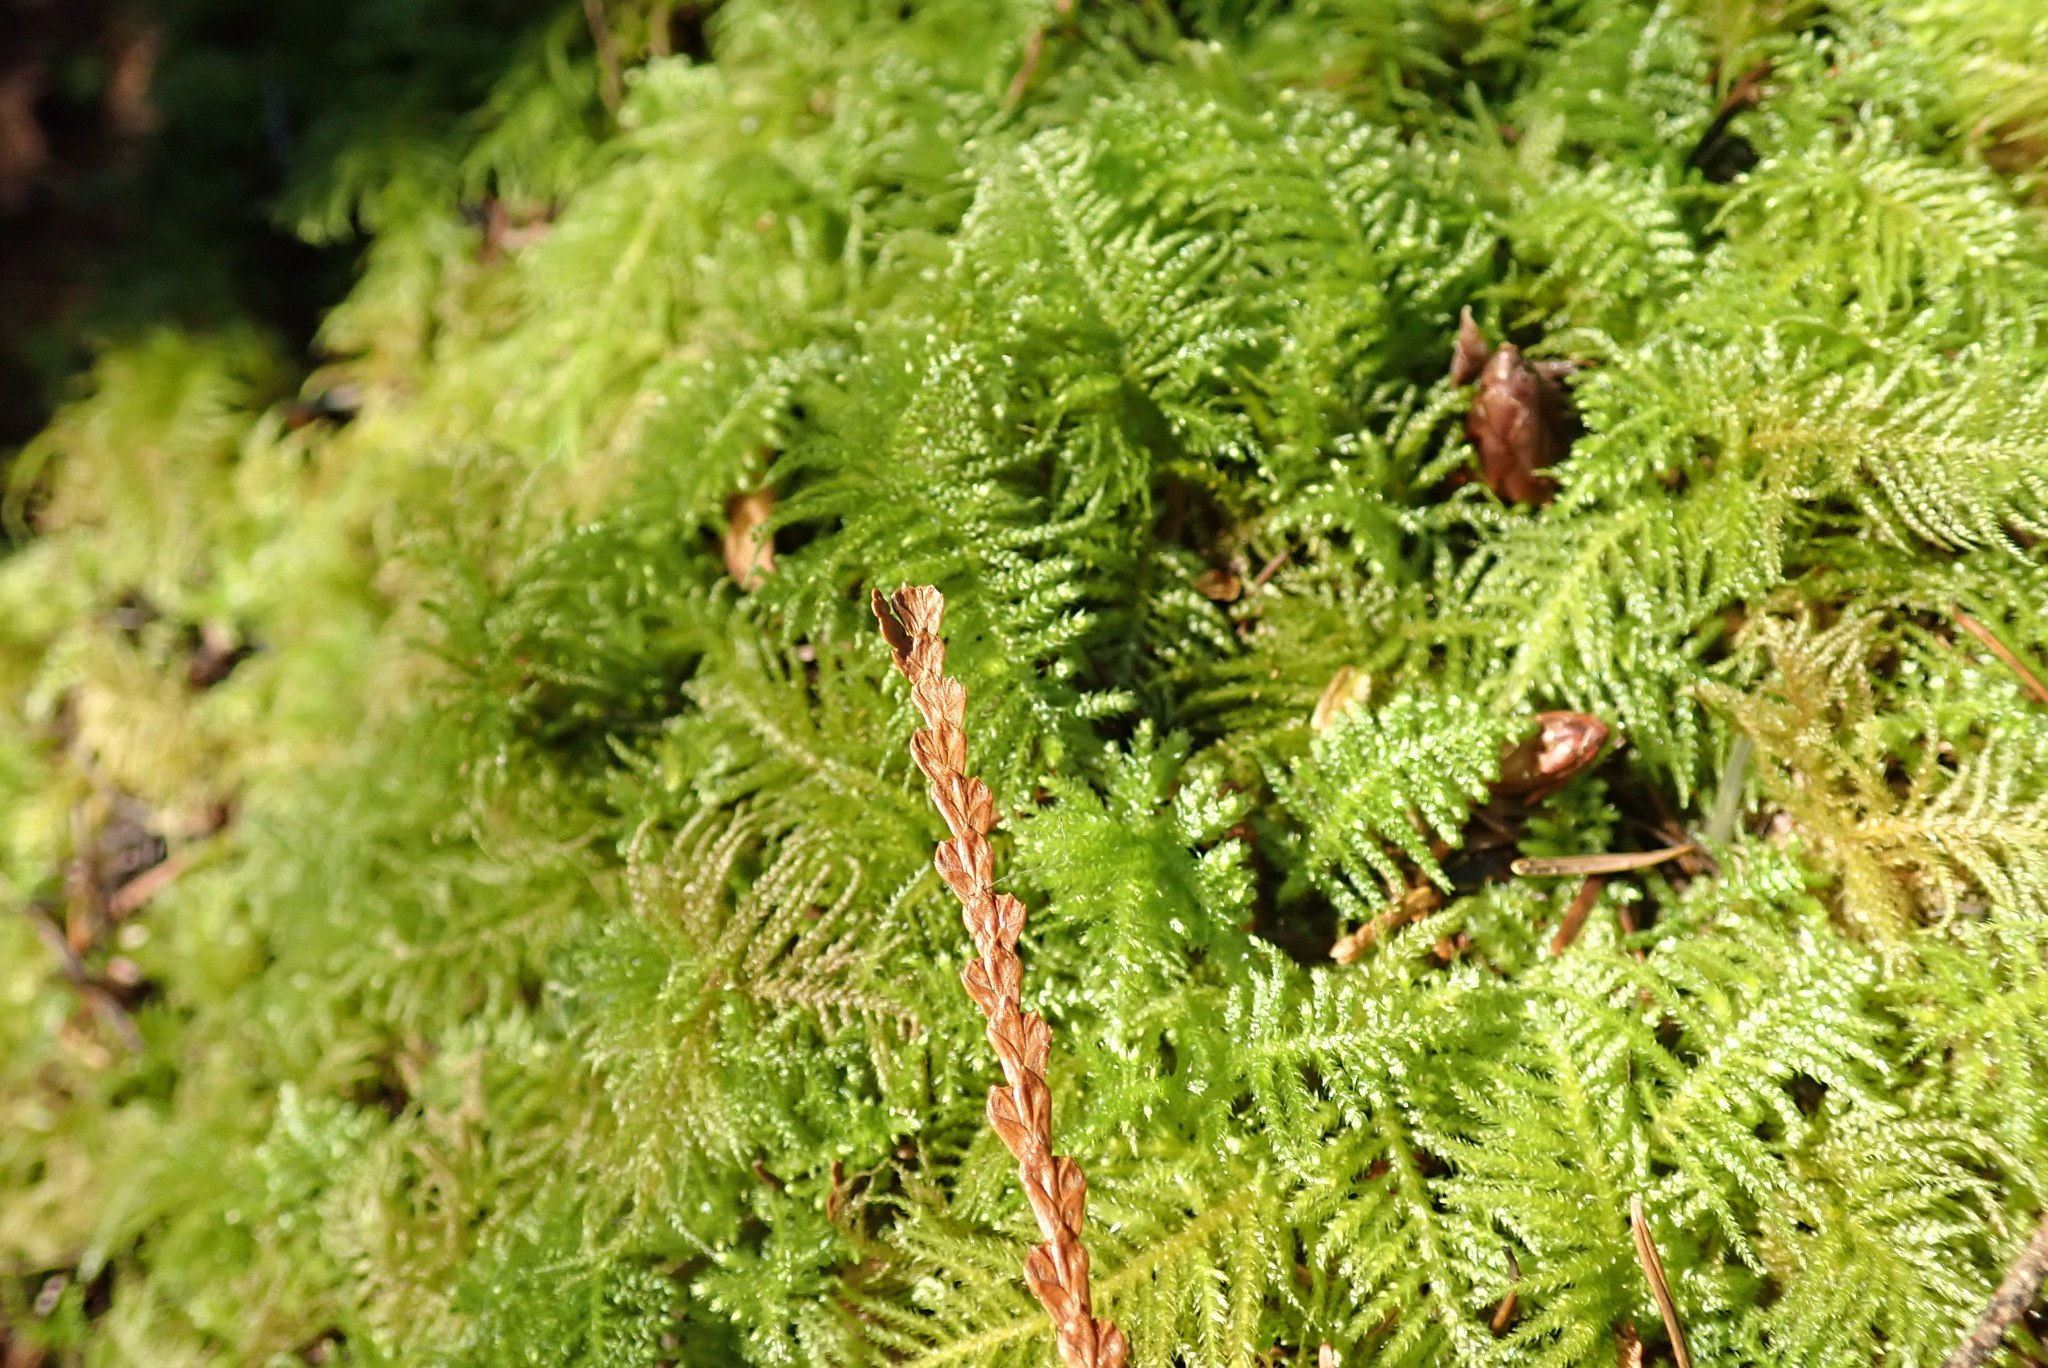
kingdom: Plantae
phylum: Bryophyta
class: Bryopsida
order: Hypnales
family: Brachytheciaceae
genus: Kindbergia
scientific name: Kindbergia oregana
